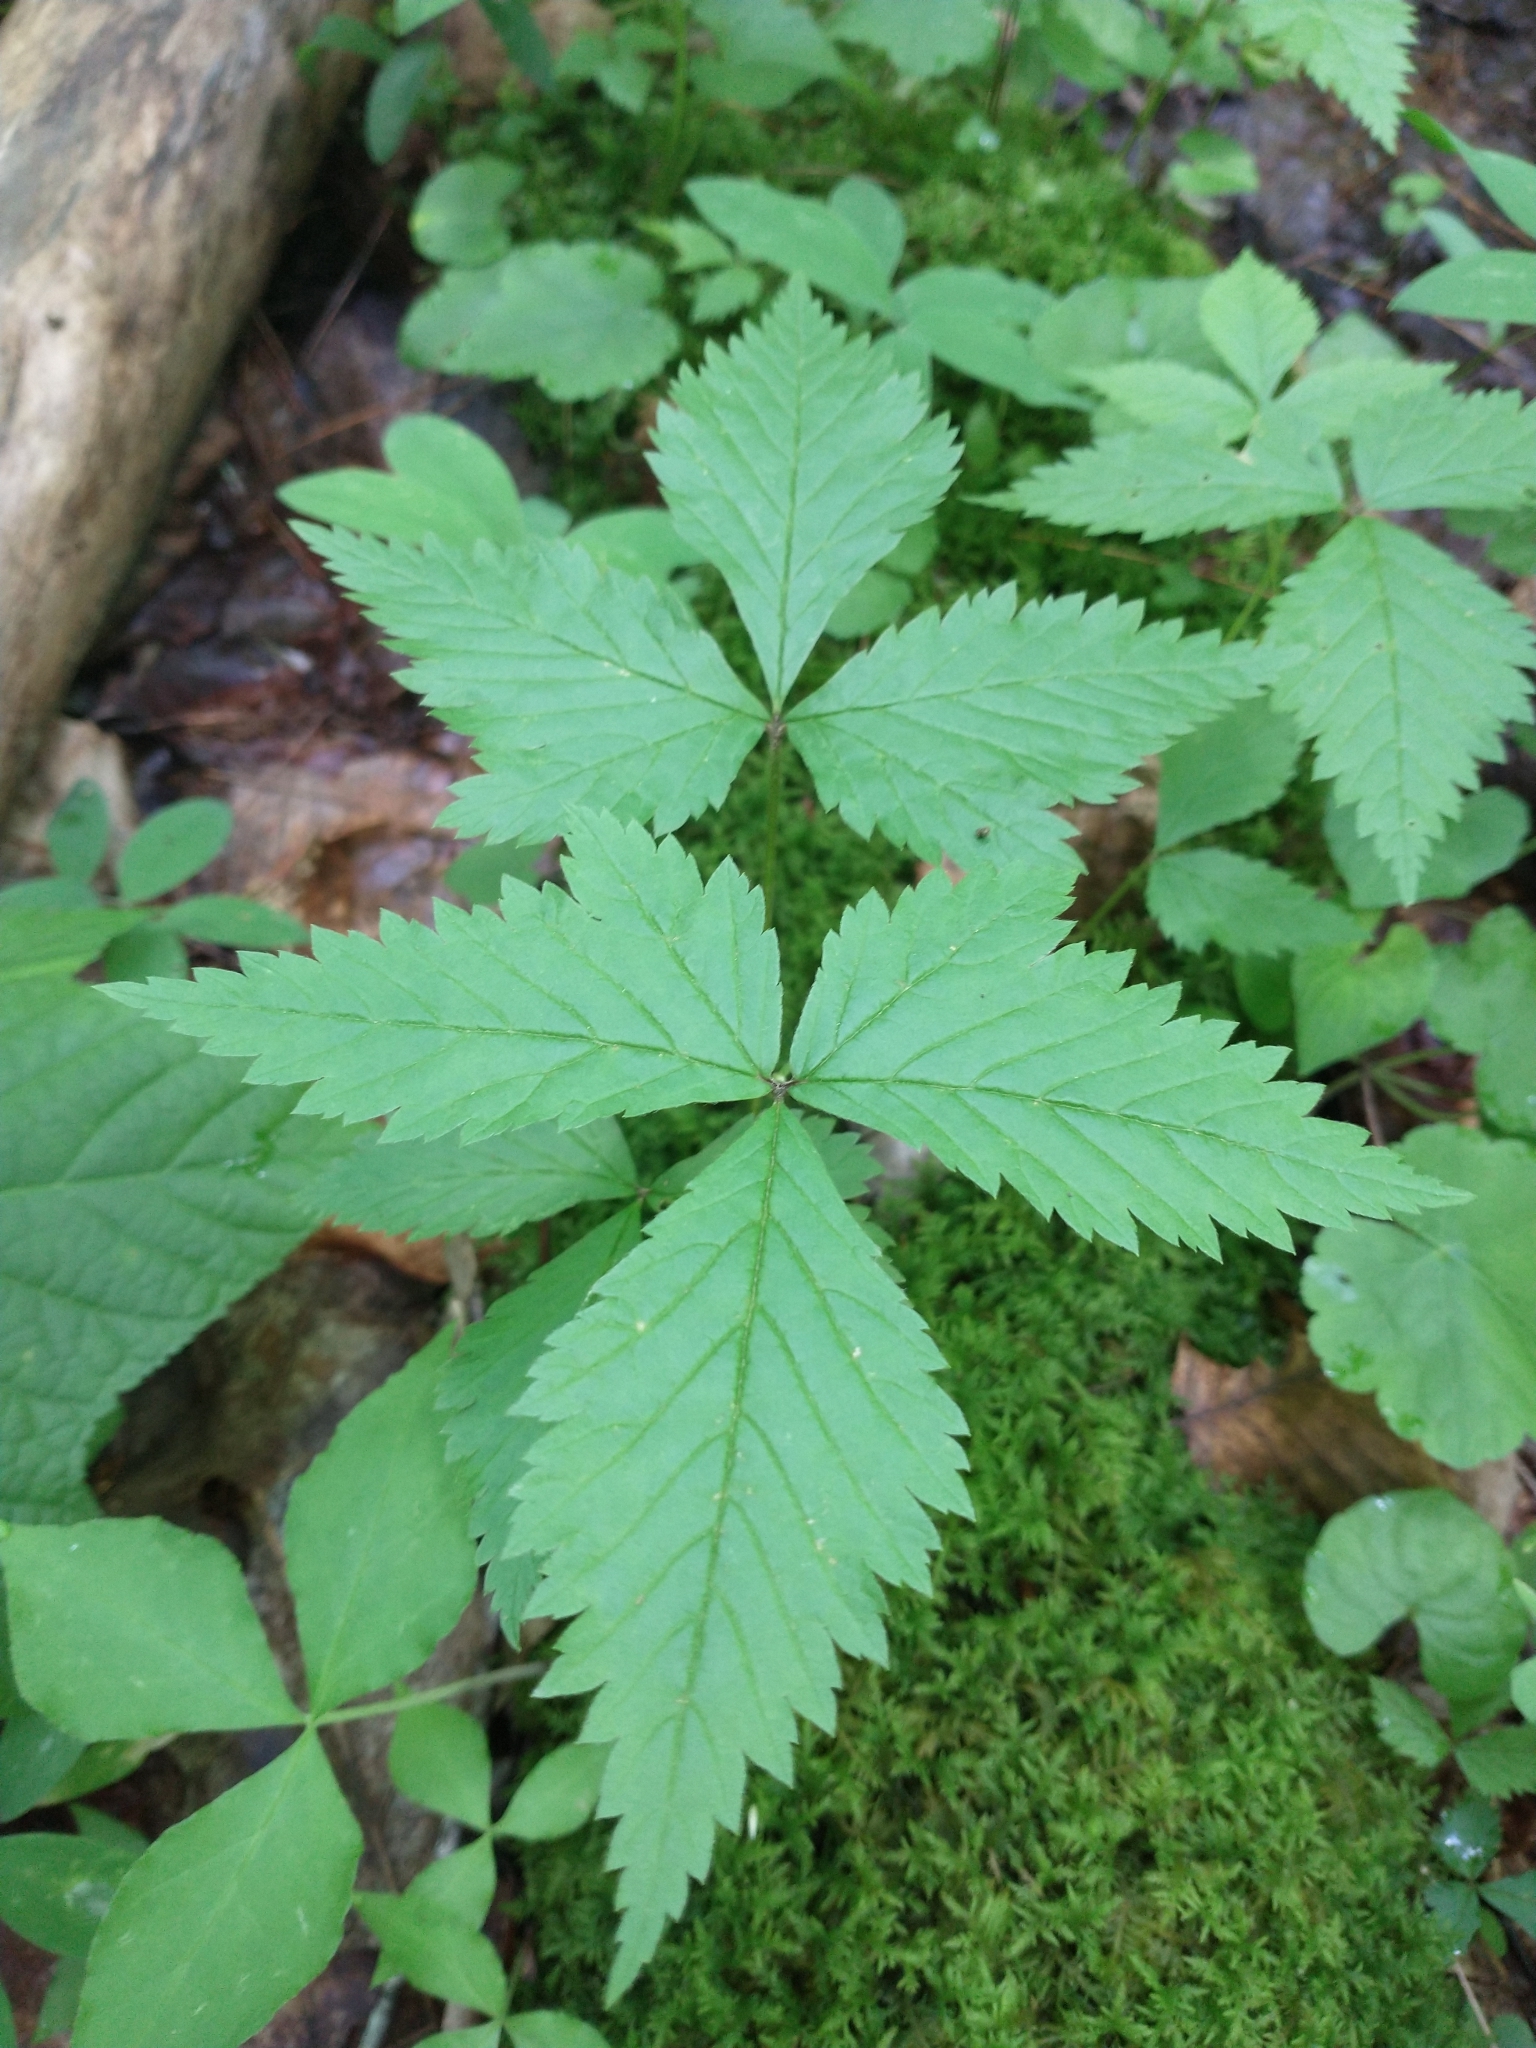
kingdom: Plantae
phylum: Tracheophyta
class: Magnoliopsida
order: Rosales
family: Rosaceae
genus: Rubus
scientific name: Rubus pubescens
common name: Dwarf raspberry
